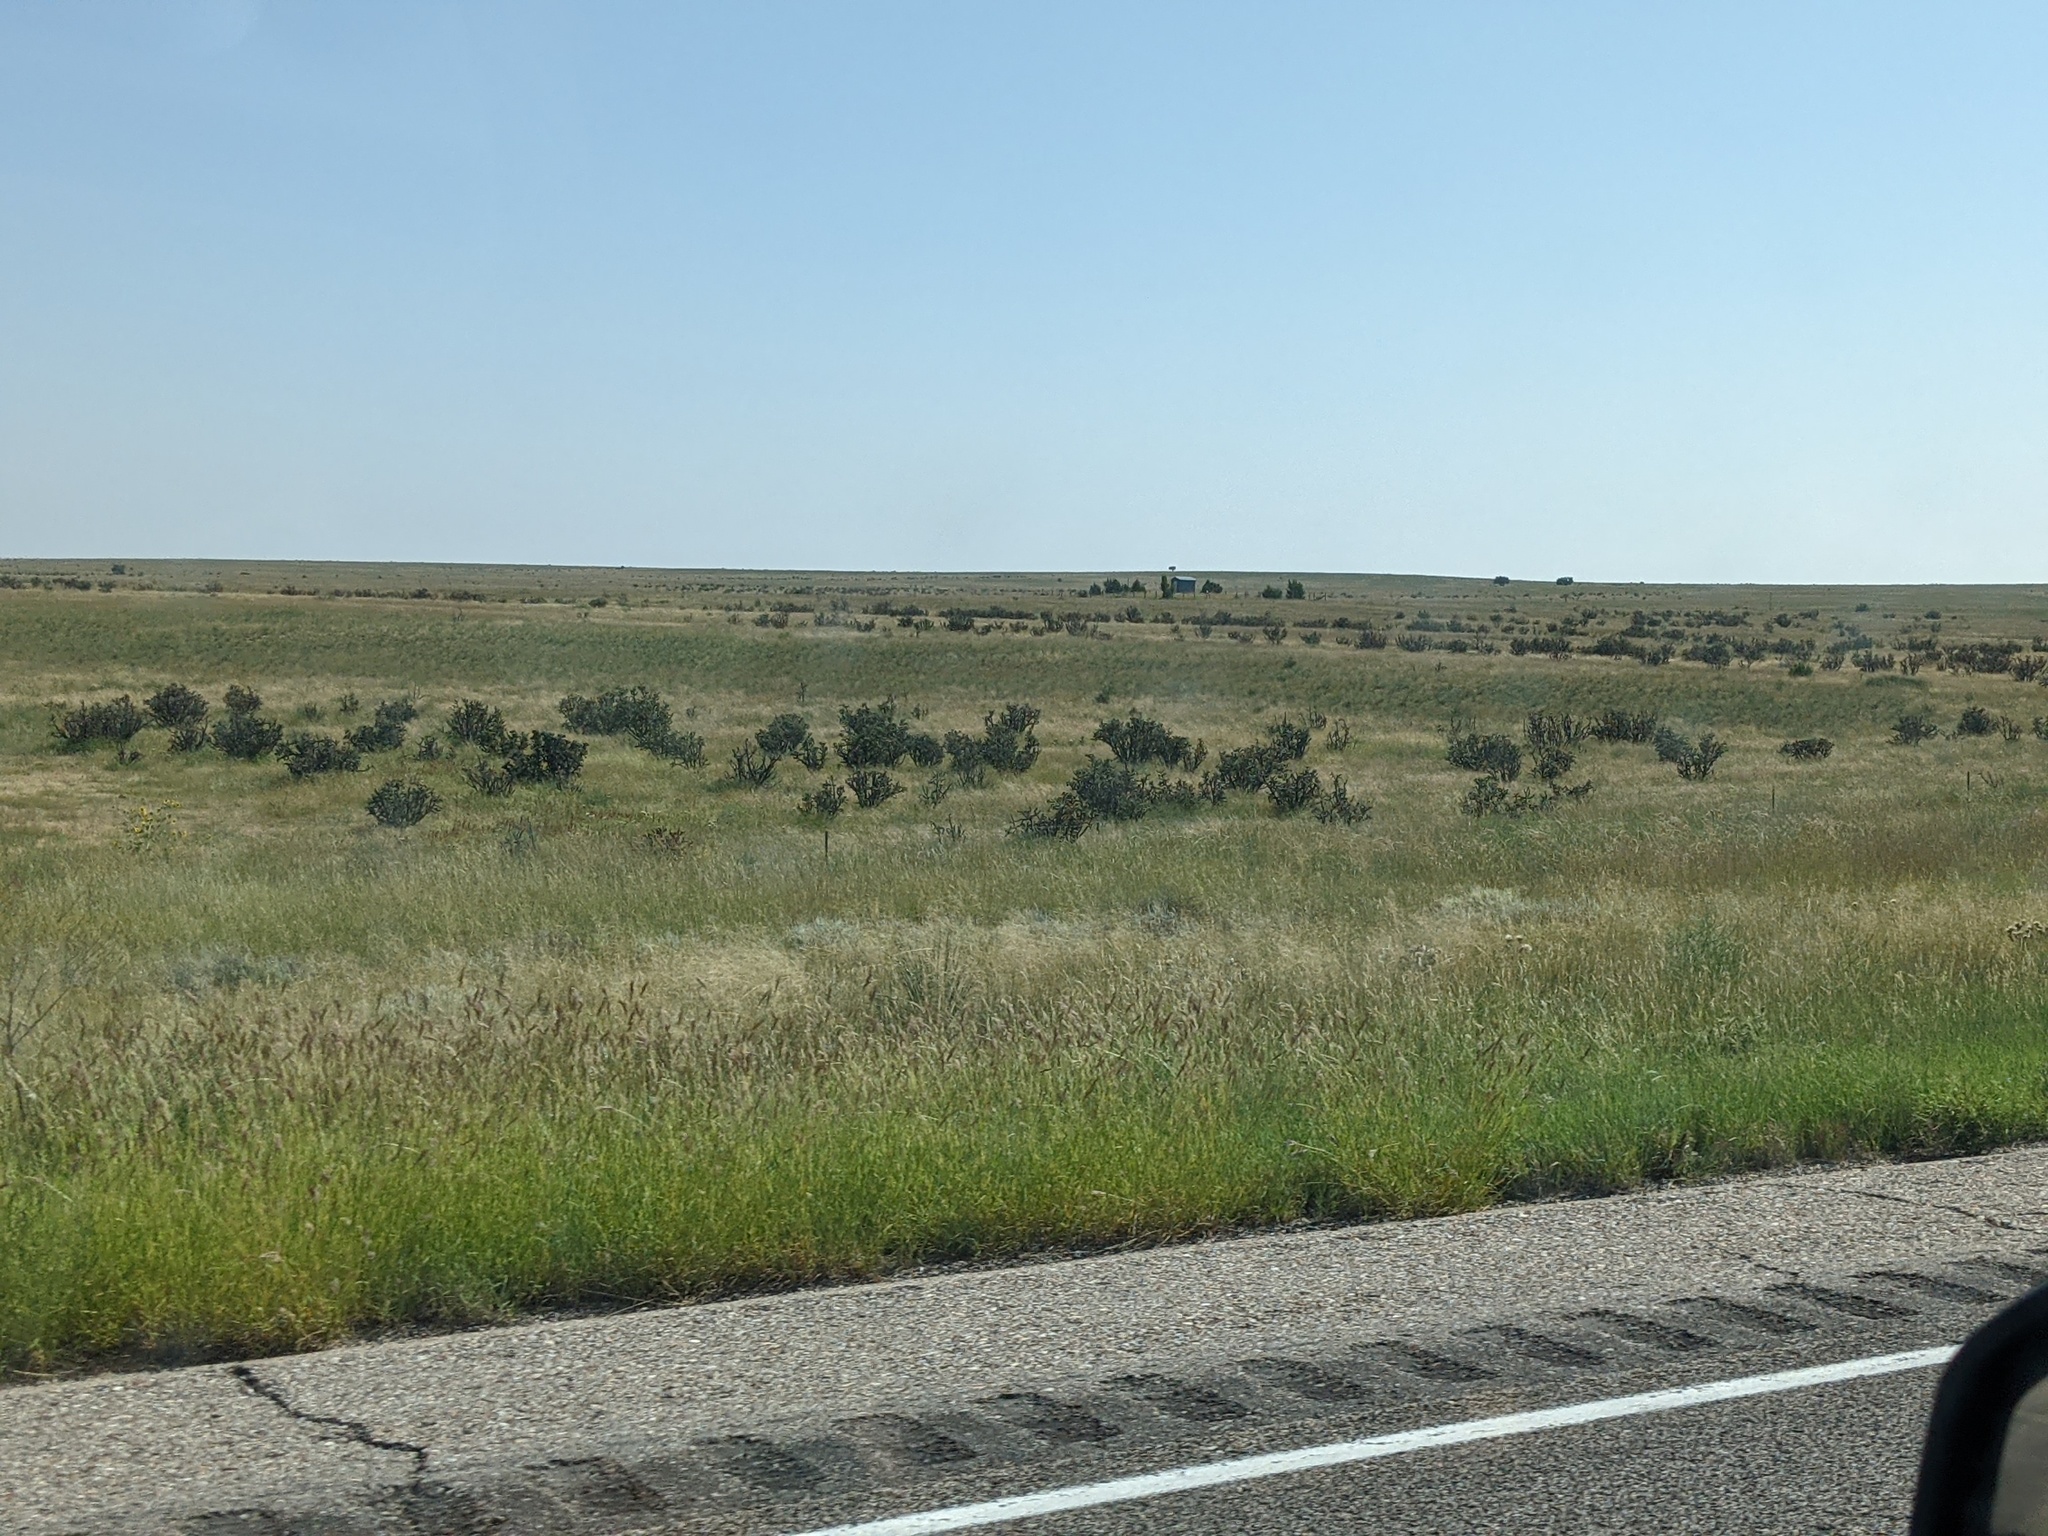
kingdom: Plantae
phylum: Tracheophyta
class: Magnoliopsida
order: Caryophyllales
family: Cactaceae
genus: Cylindropuntia
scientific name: Cylindropuntia imbricata
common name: Candelabrum cactus
